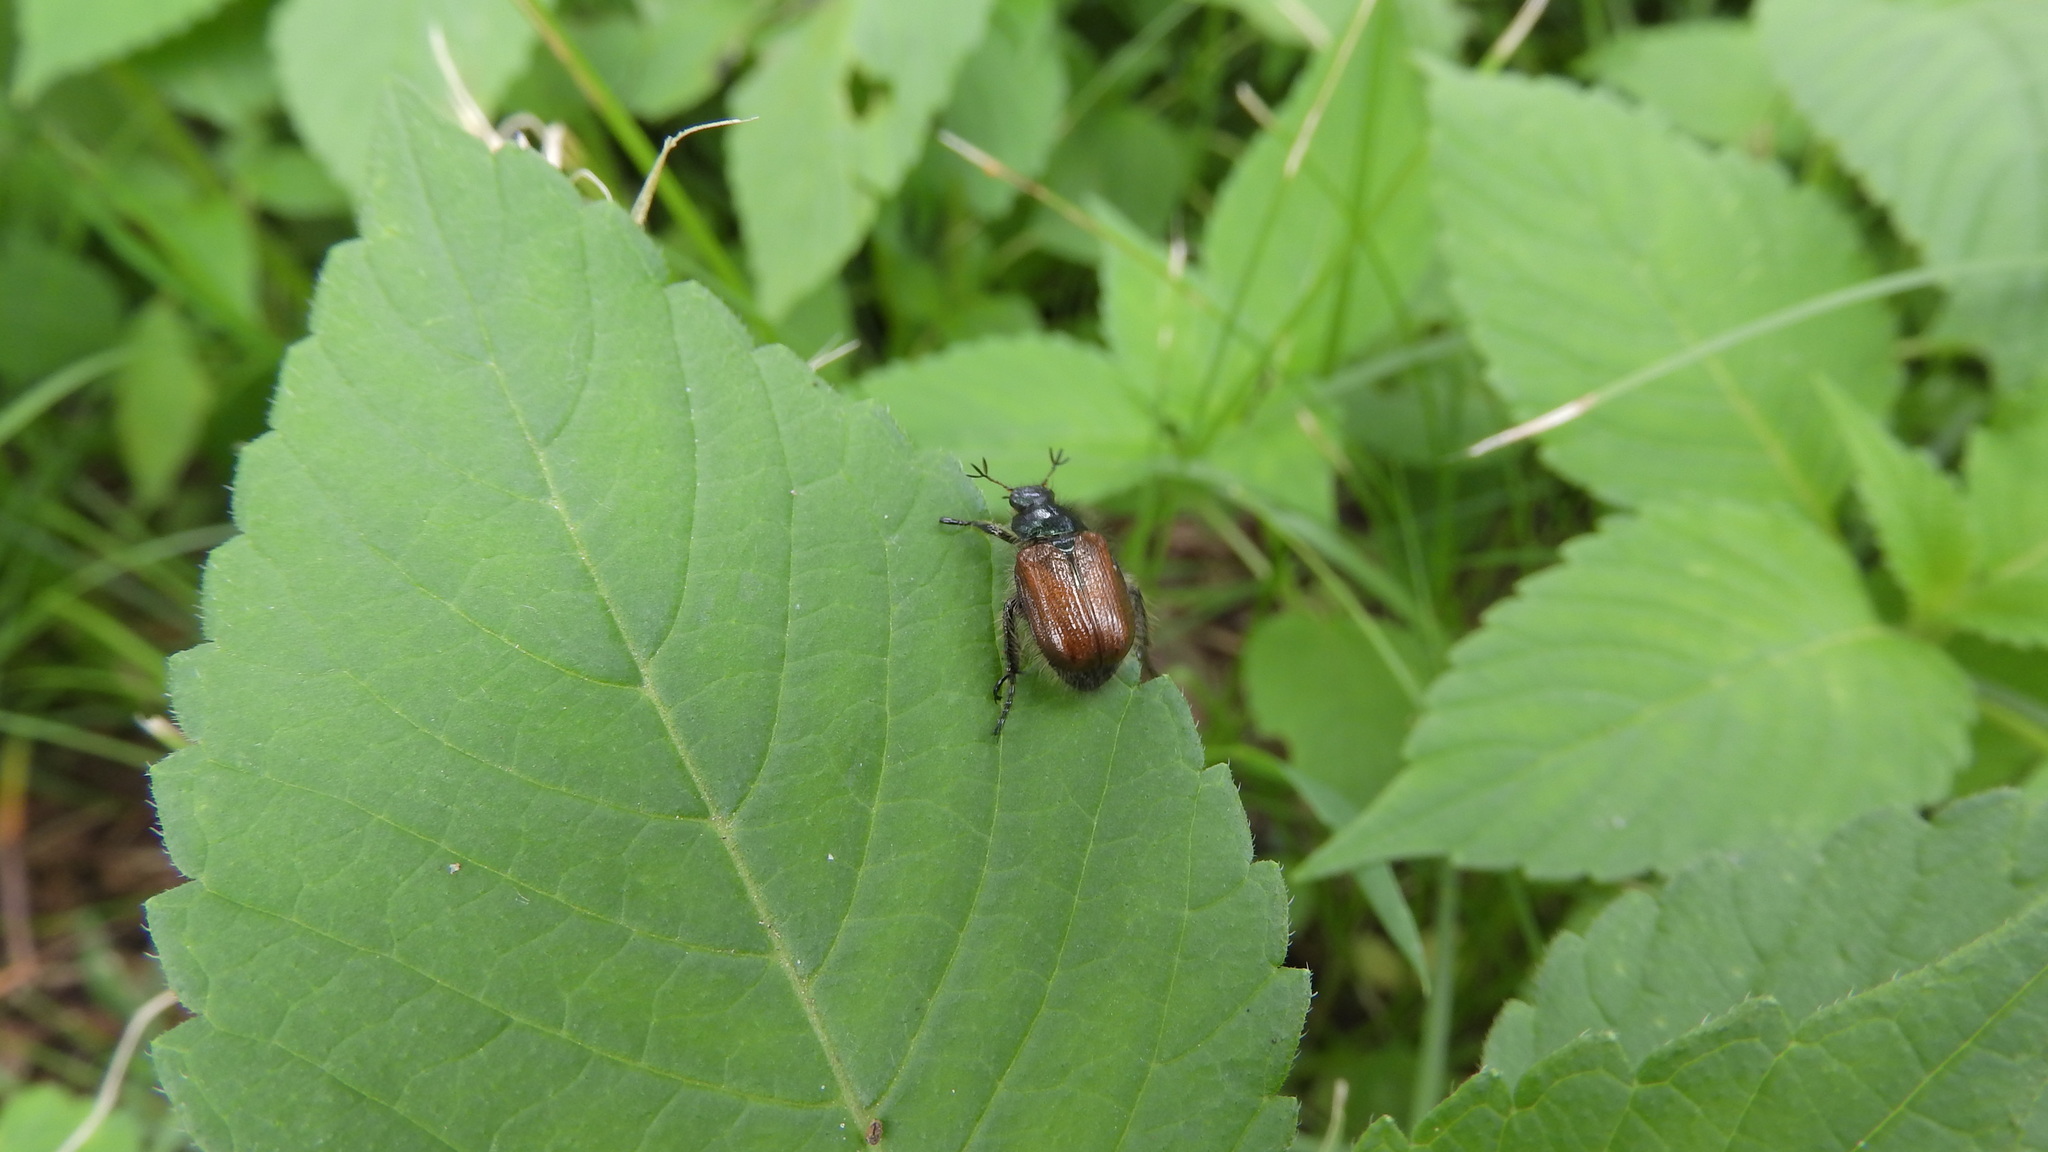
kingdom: Animalia
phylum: Arthropoda
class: Insecta
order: Coleoptera
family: Scarabaeidae
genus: Phyllopertha
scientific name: Phyllopertha horticola
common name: Garden chafer
